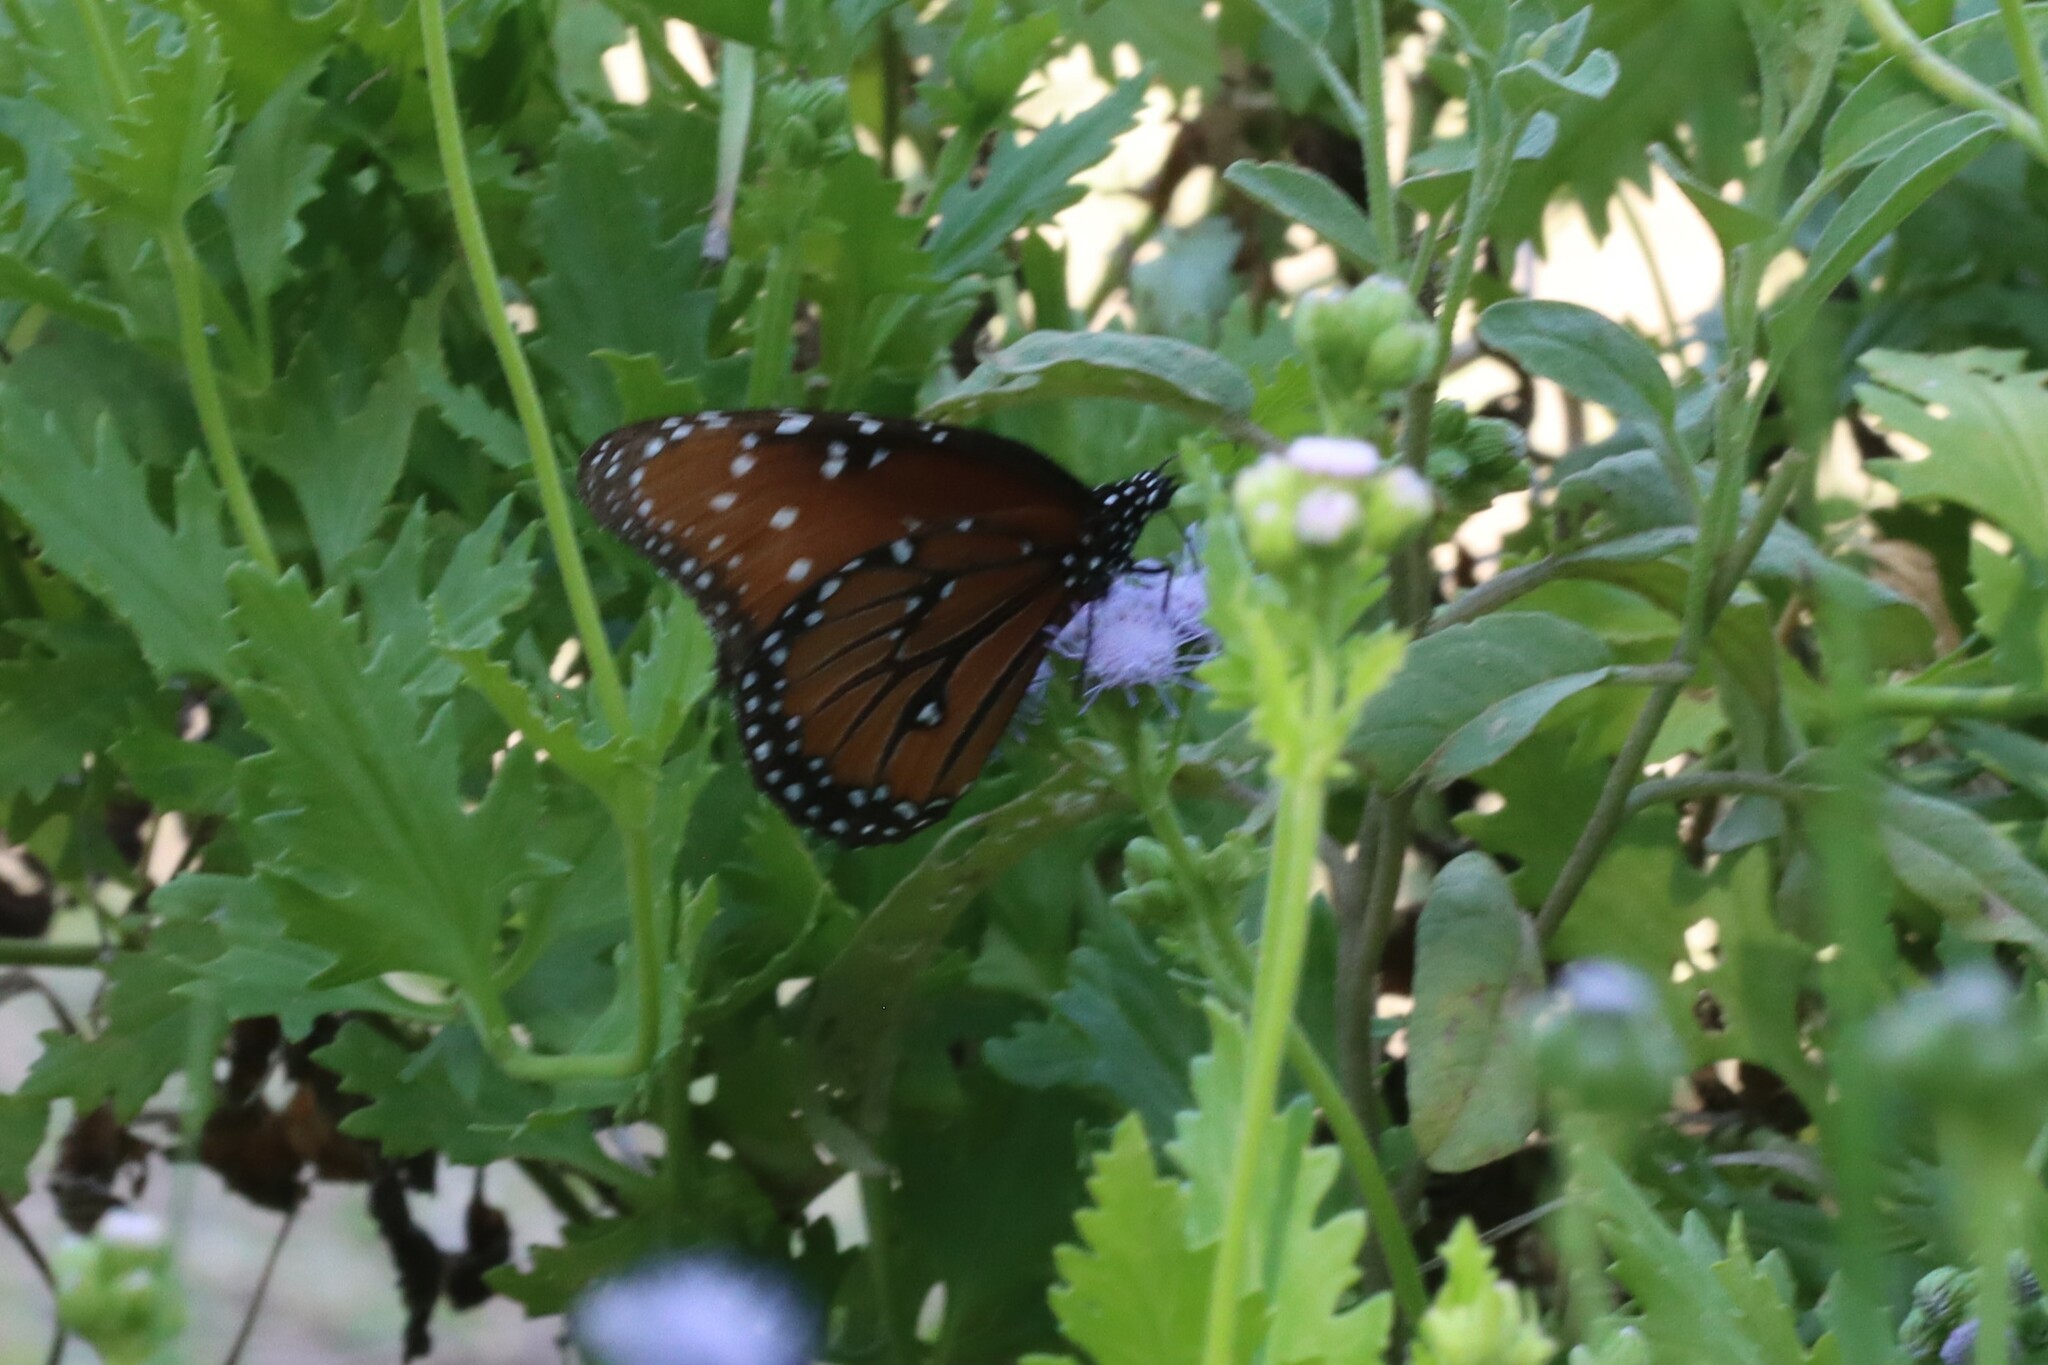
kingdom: Animalia
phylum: Arthropoda
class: Insecta
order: Lepidoptera
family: Nymphalidae
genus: Danaus
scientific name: Danaus gilippus
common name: Queen
